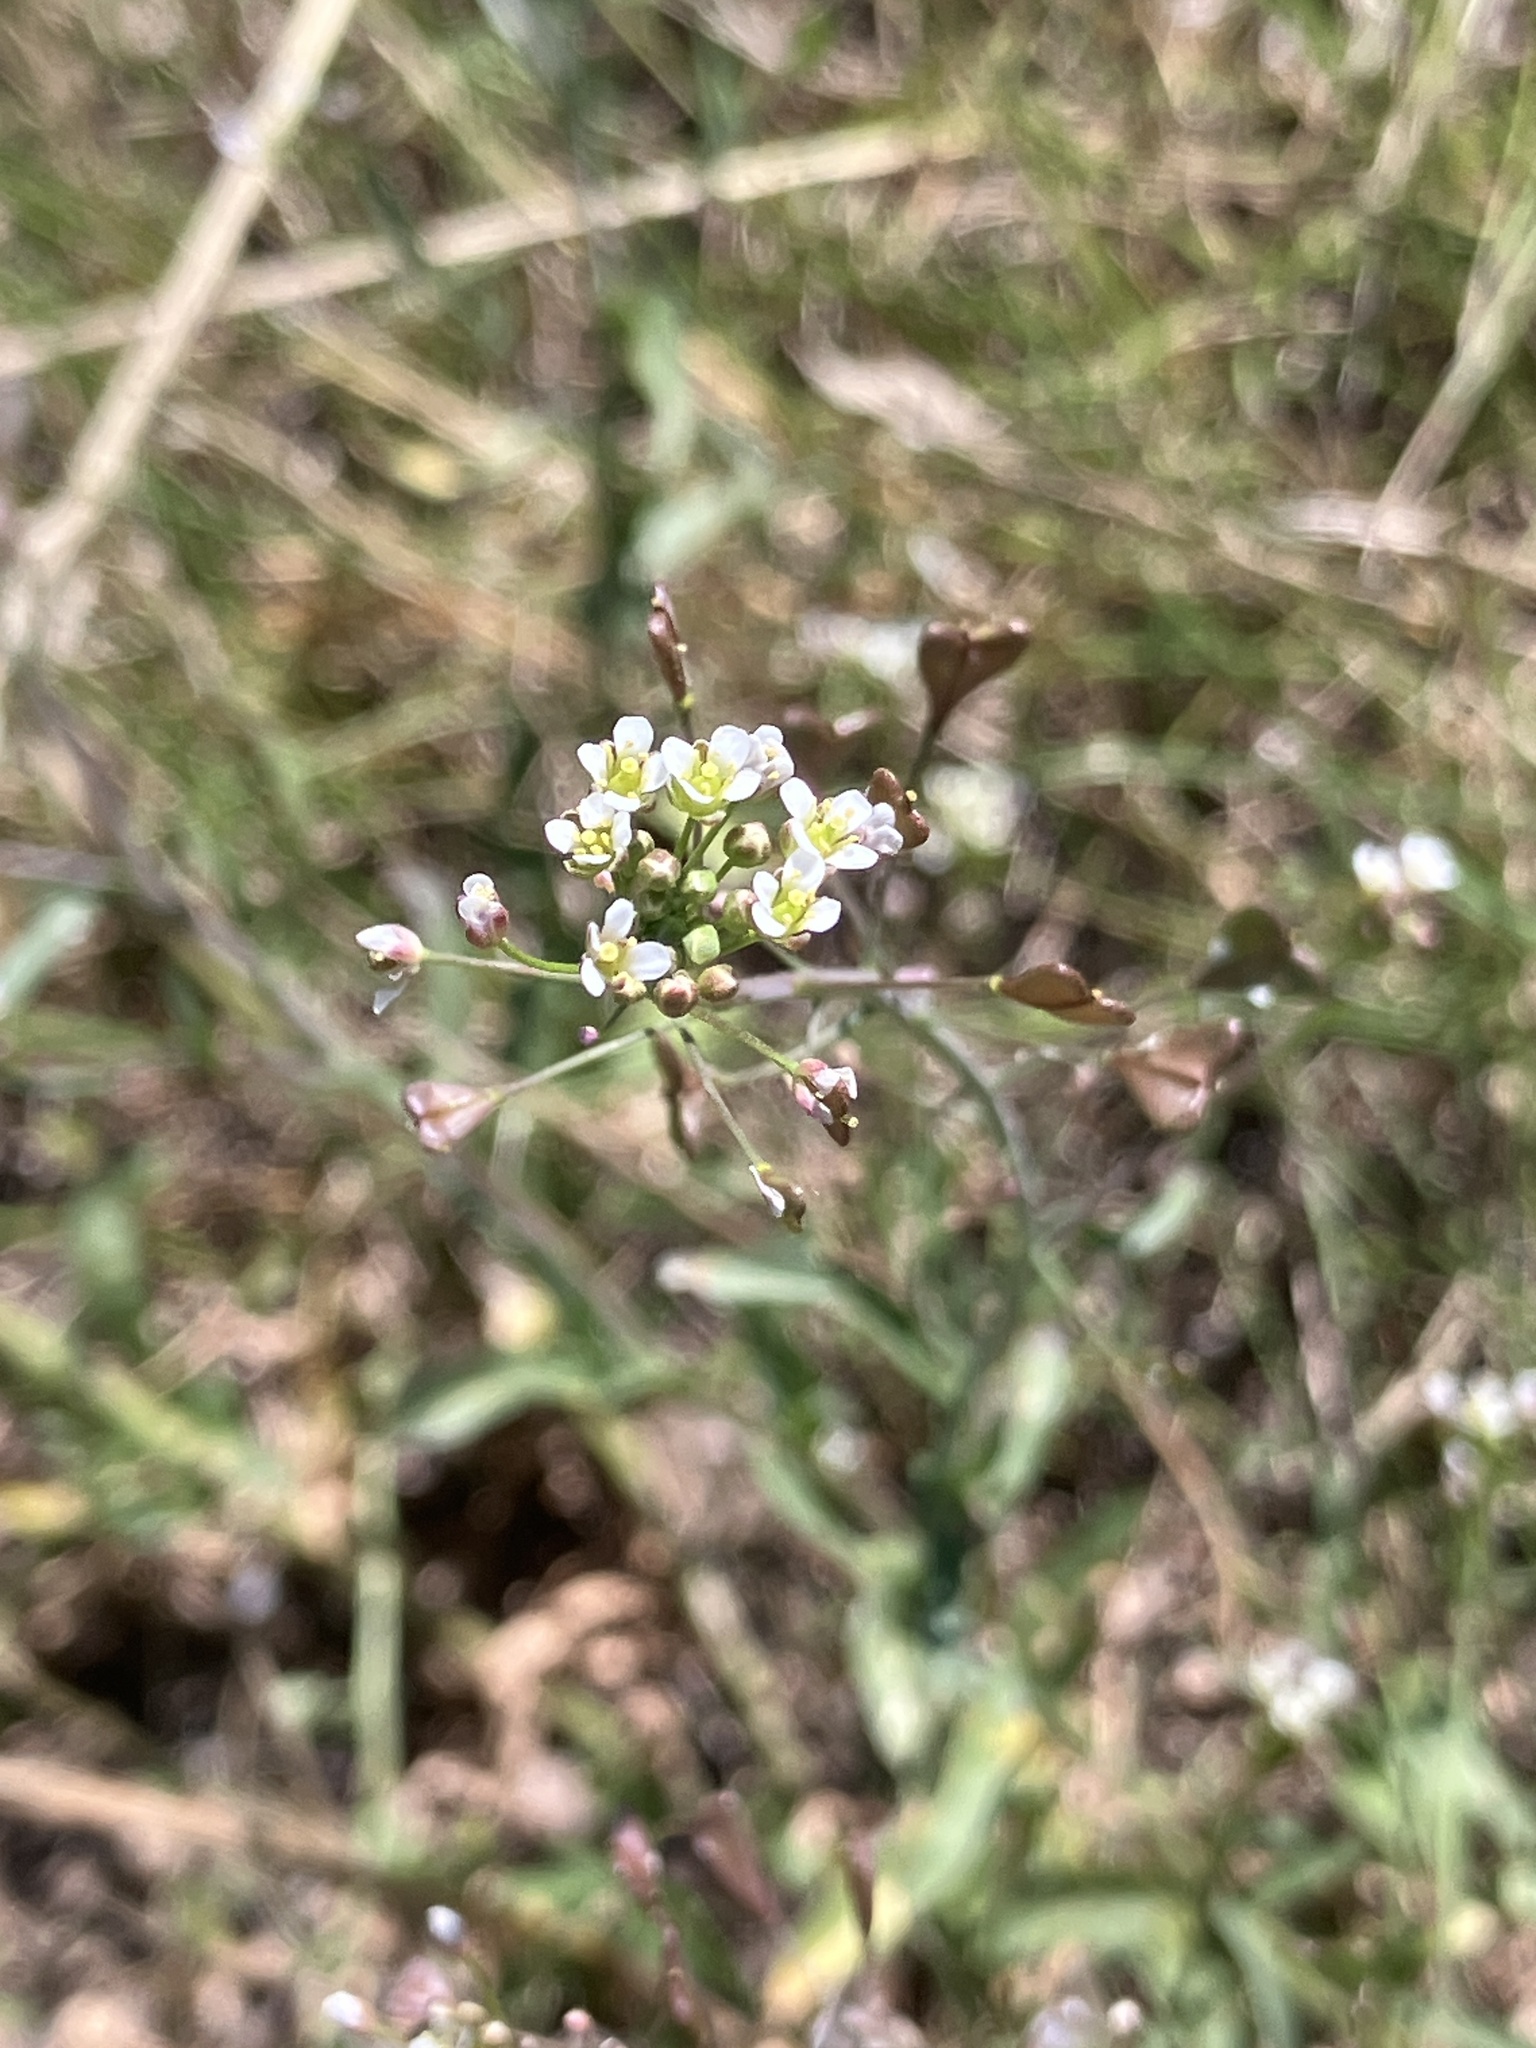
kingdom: Plantae
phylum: Tracheophyta
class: Magnoliopsida
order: Brassicales
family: Brassicaceae
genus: Capsella
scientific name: Capsella bursa-pastoris
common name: Shepherd's purse
